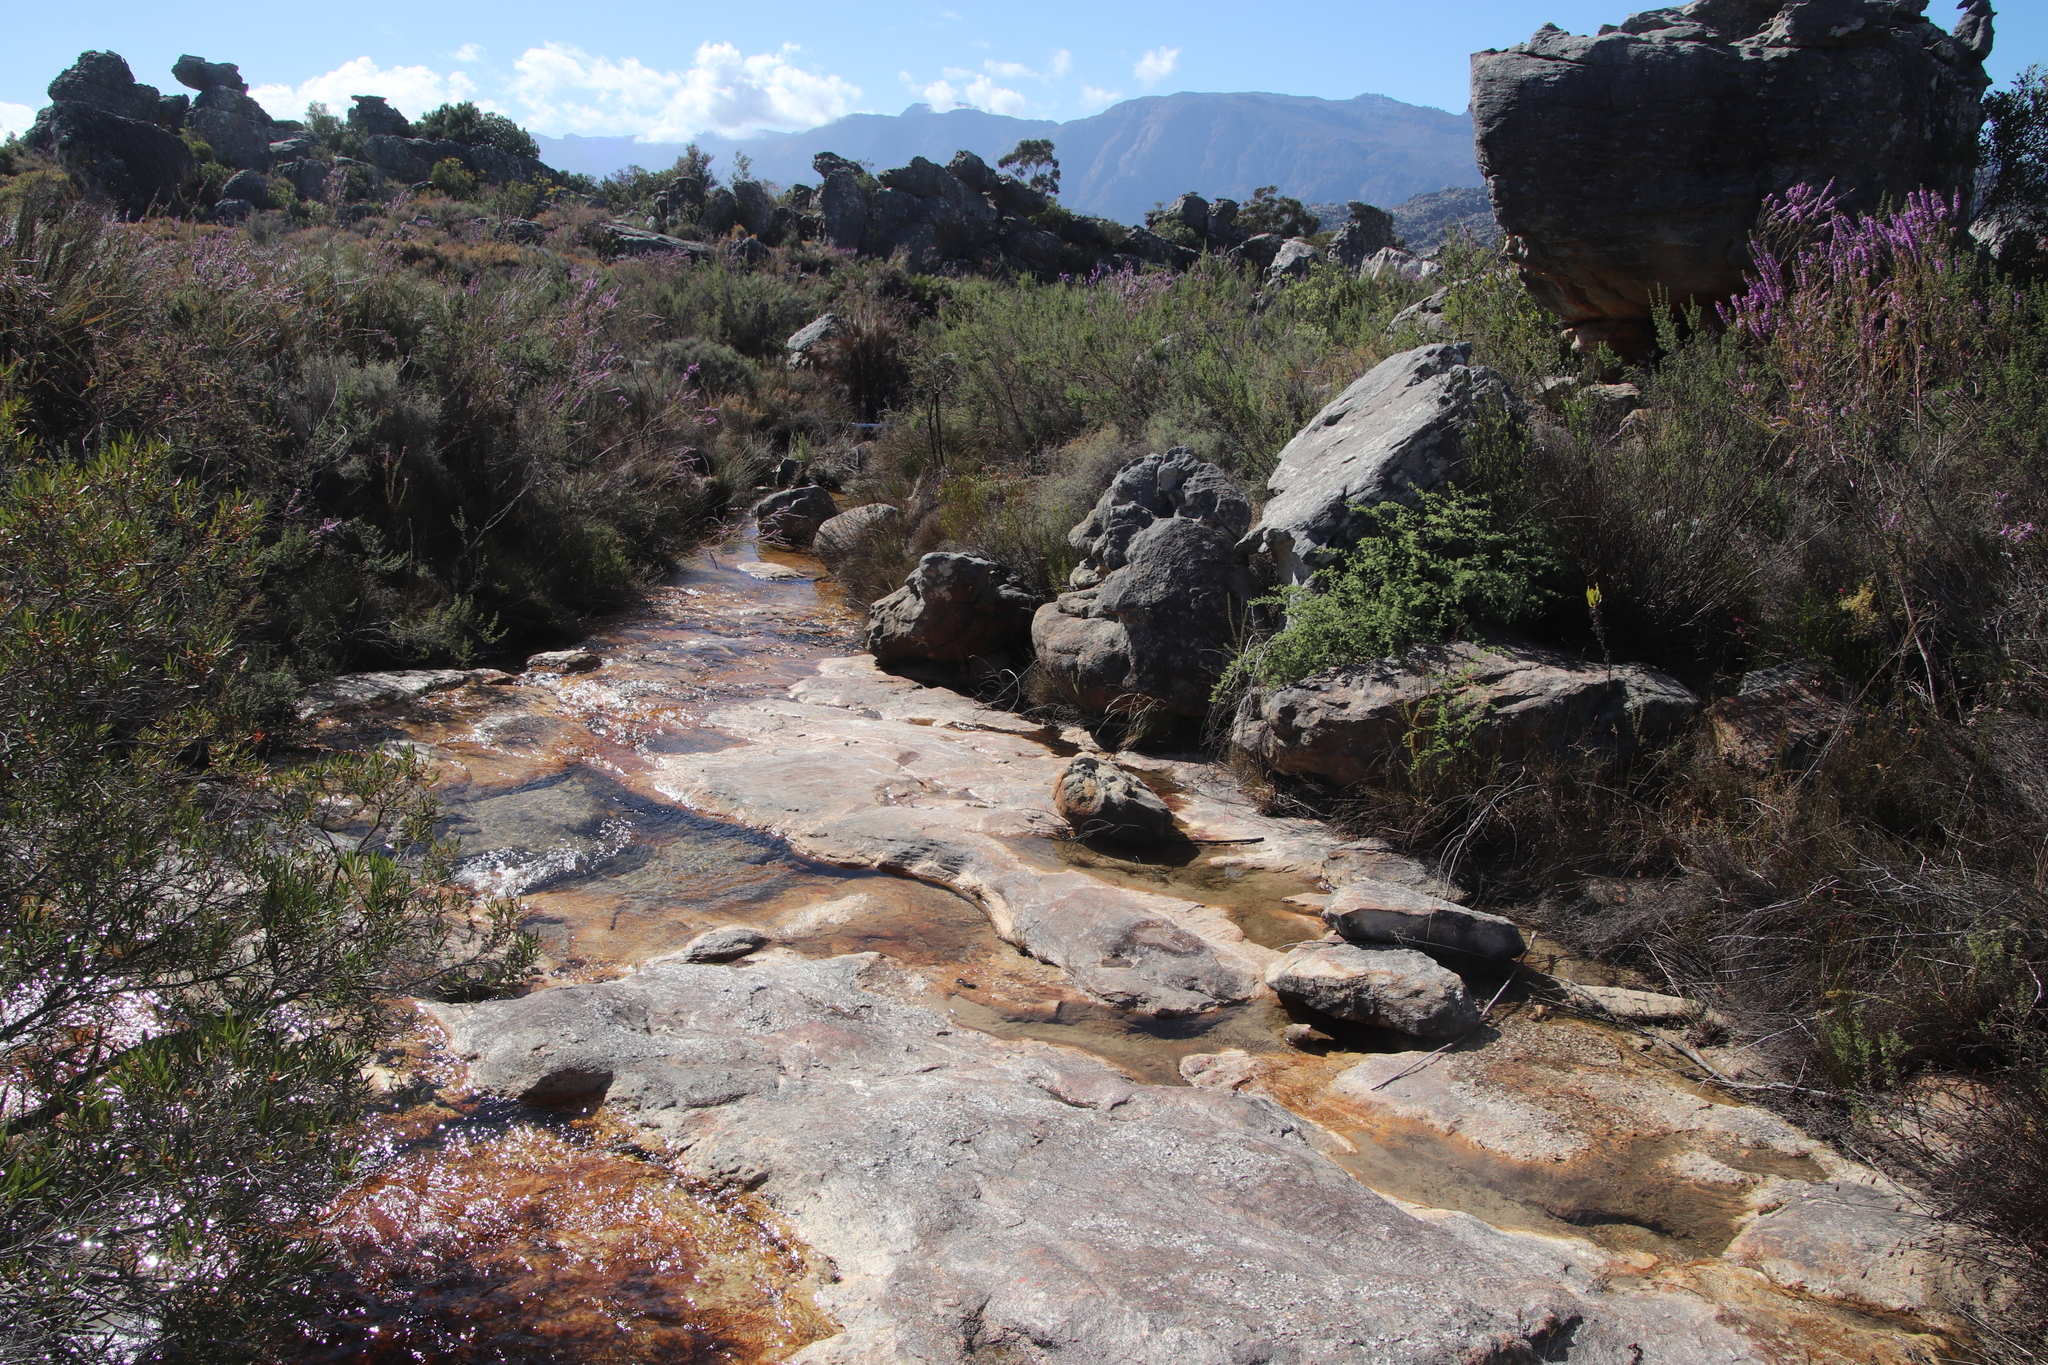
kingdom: Plantae
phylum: Tracheophyta
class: Liliopsida
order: Asparagales
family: Asparagaceae
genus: Asparagus
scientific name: Asparagus rubicundus
